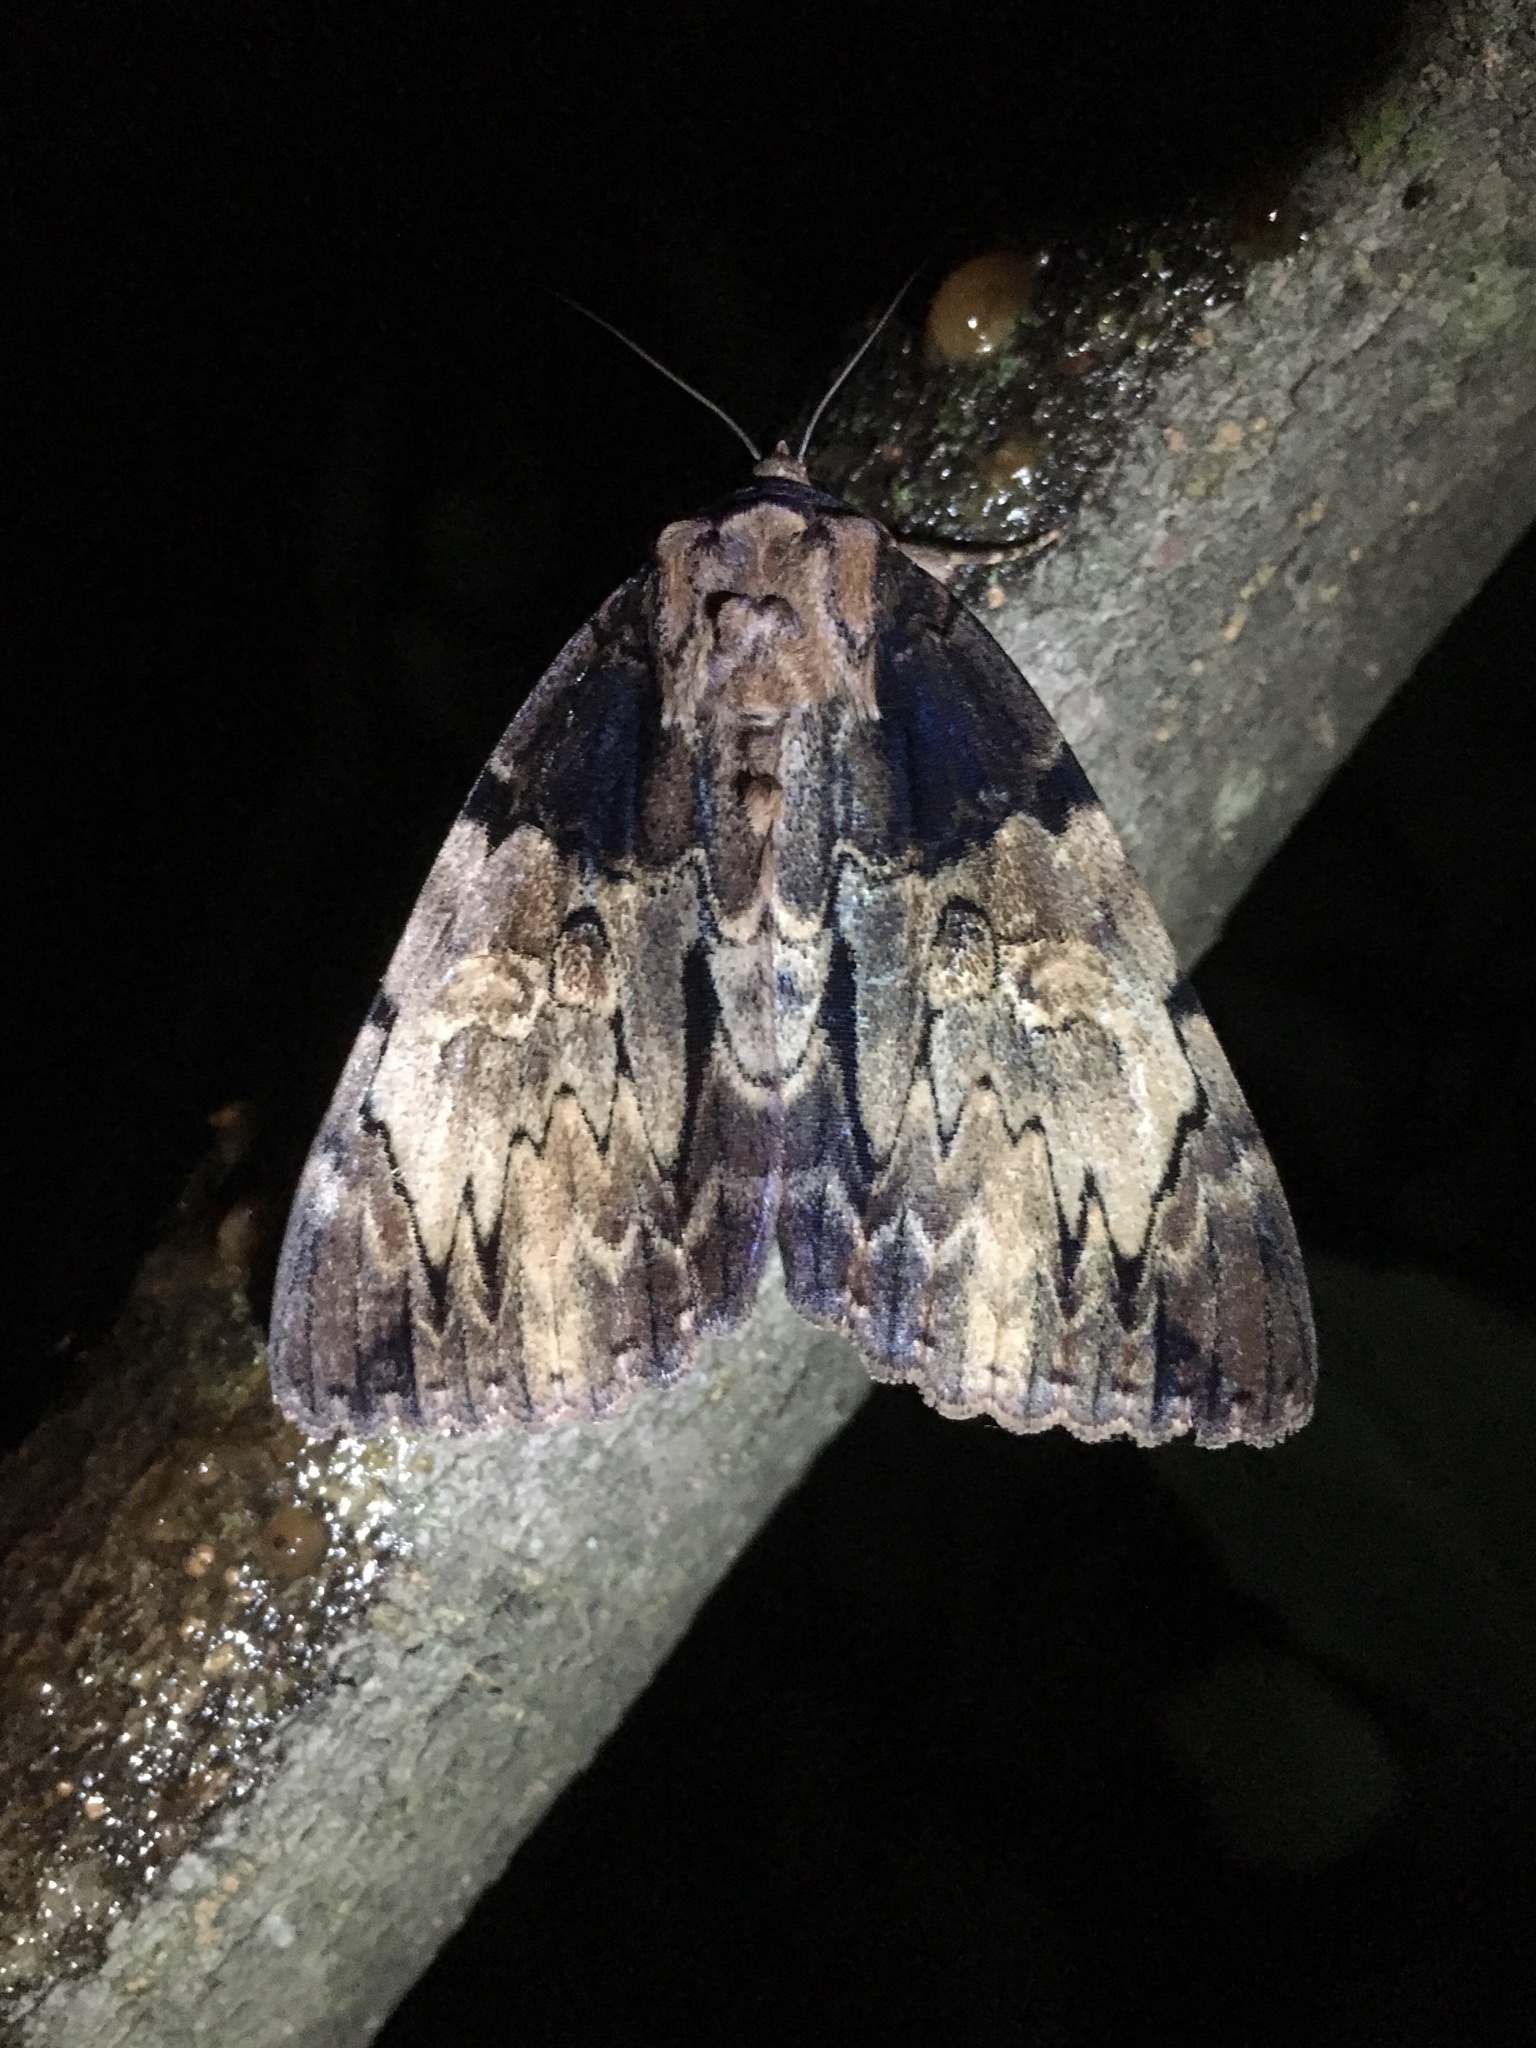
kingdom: Animalia
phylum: Arthropoda
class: Insecta
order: Lepidoptera
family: Erebidae
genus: Catocala
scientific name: Catocala nebulosa
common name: Clouded underwing
